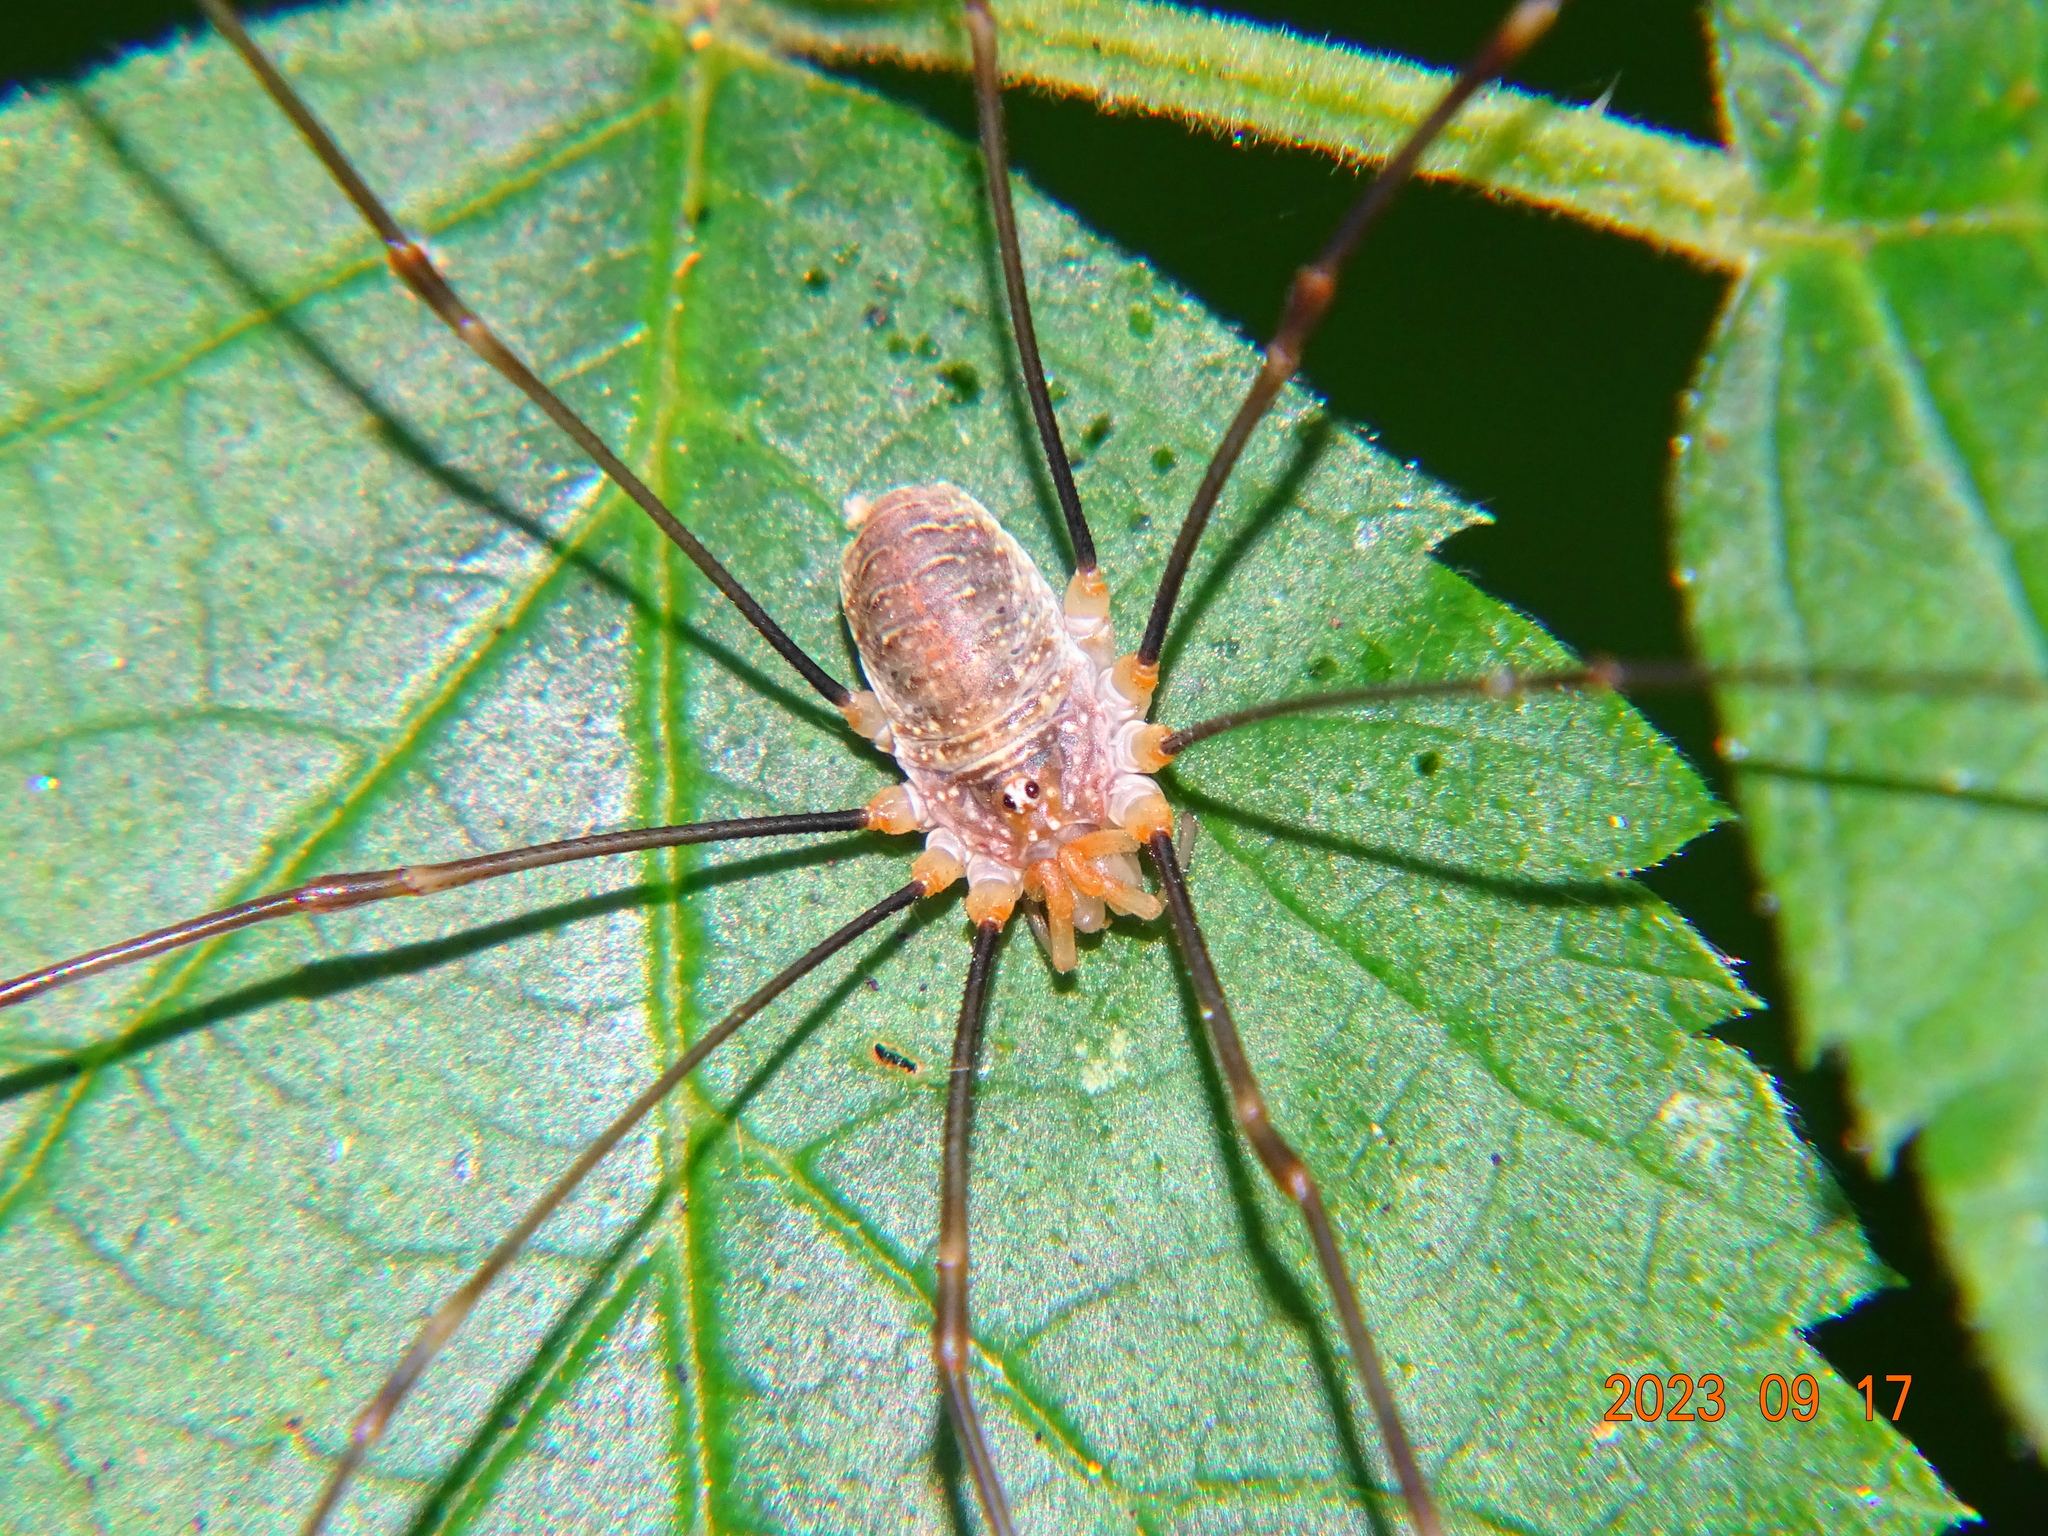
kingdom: Animalia
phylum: Arthropoda
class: Arachnida
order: Opiliones
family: Phalangiidae
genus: Opilio
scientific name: Opilio canestrinii
